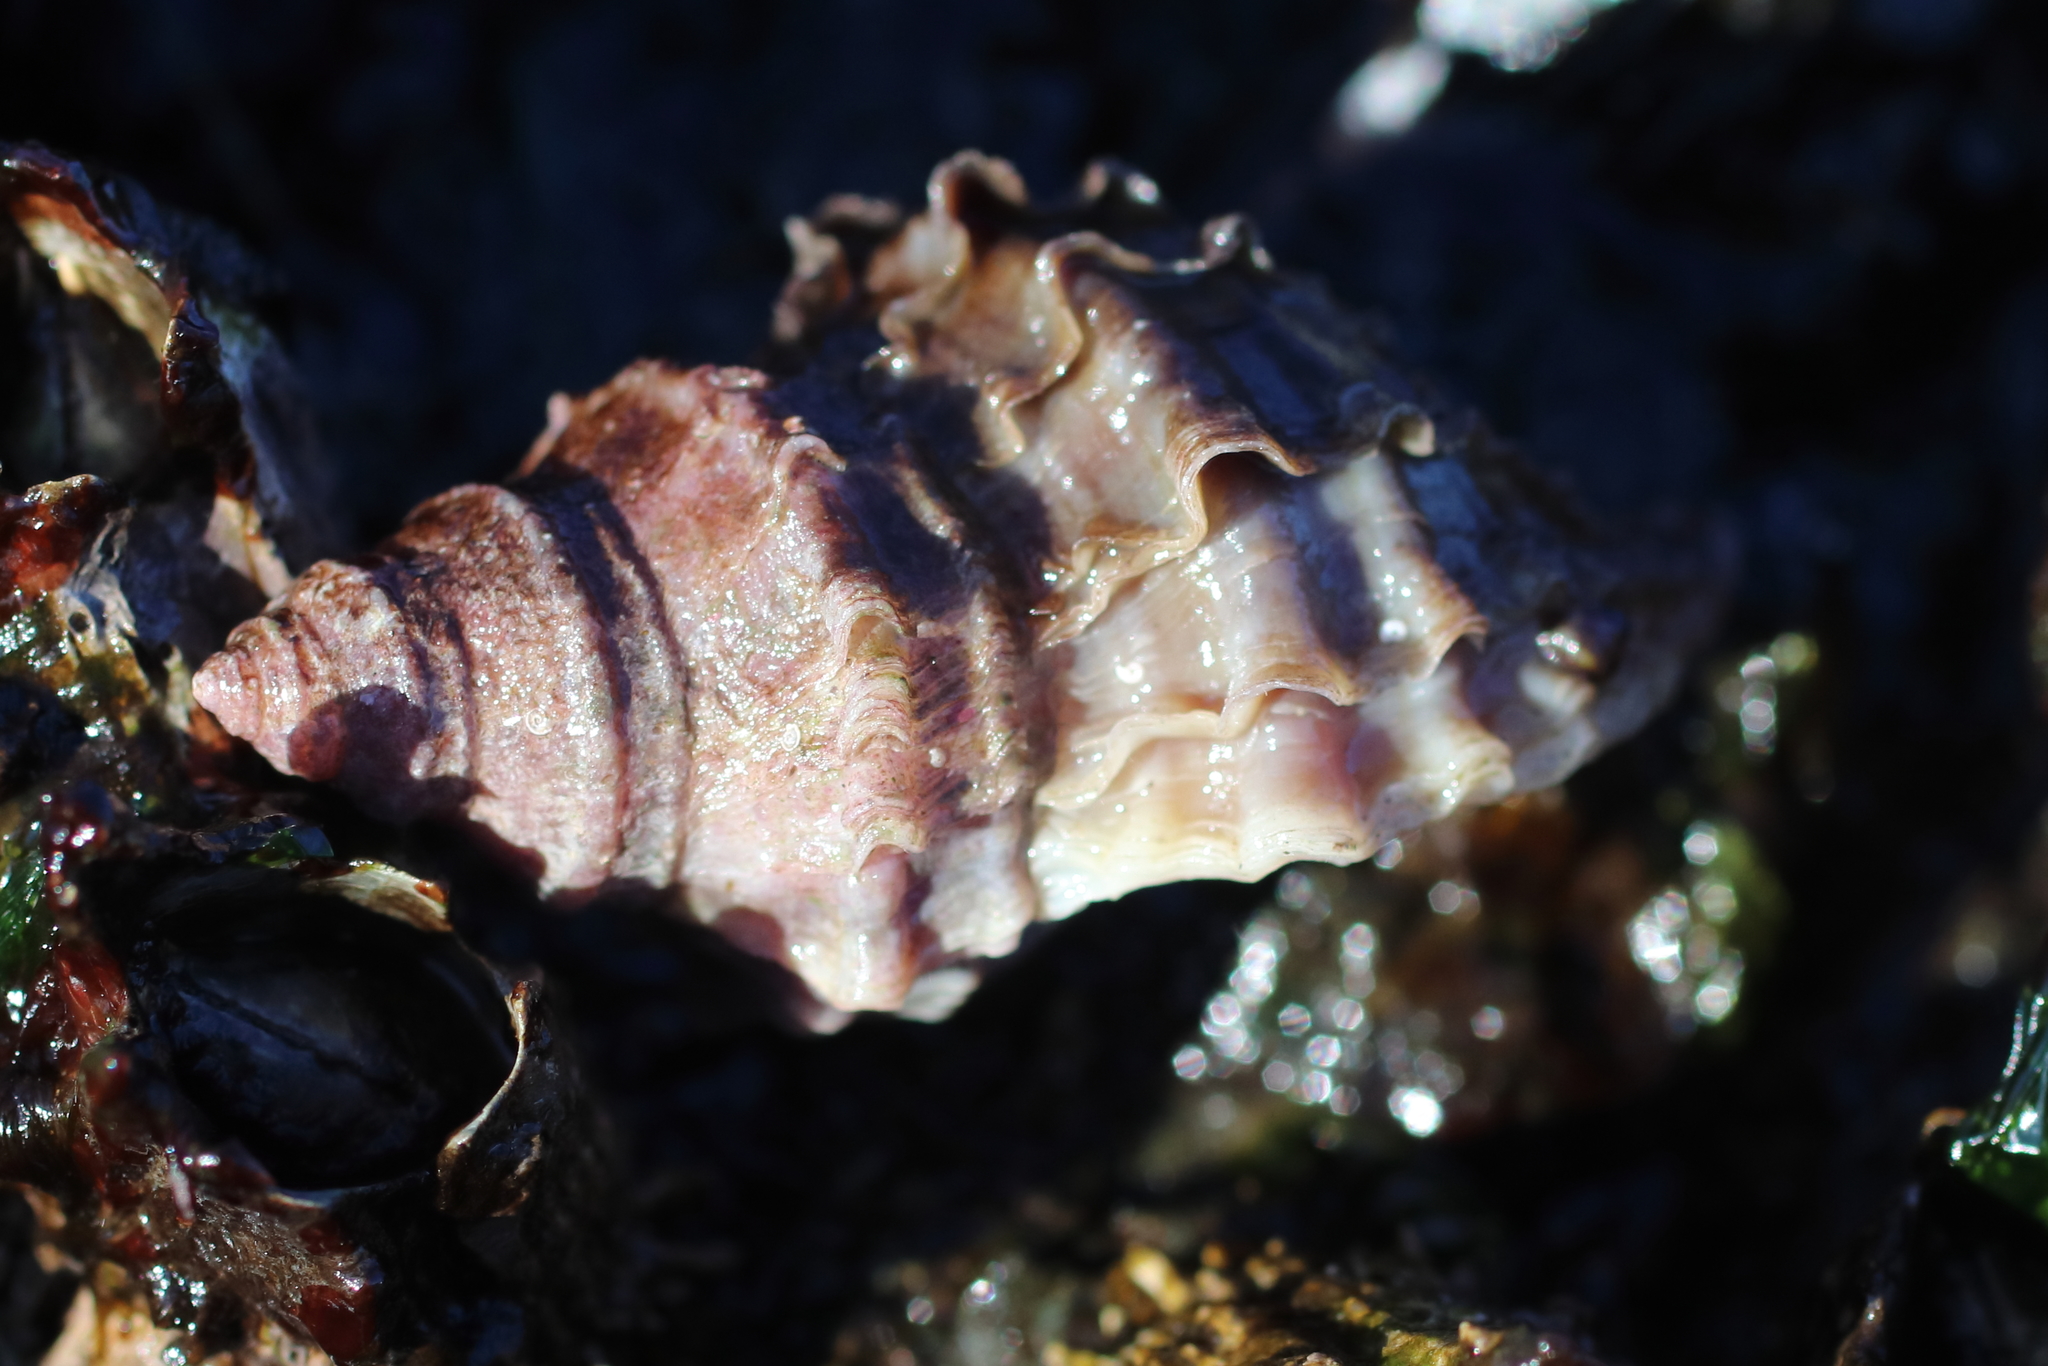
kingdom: Animalia
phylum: Mollusca
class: Gastropoda
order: Neogastropoda
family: Muricidae
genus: Nucella
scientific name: Nucella lamellosa
